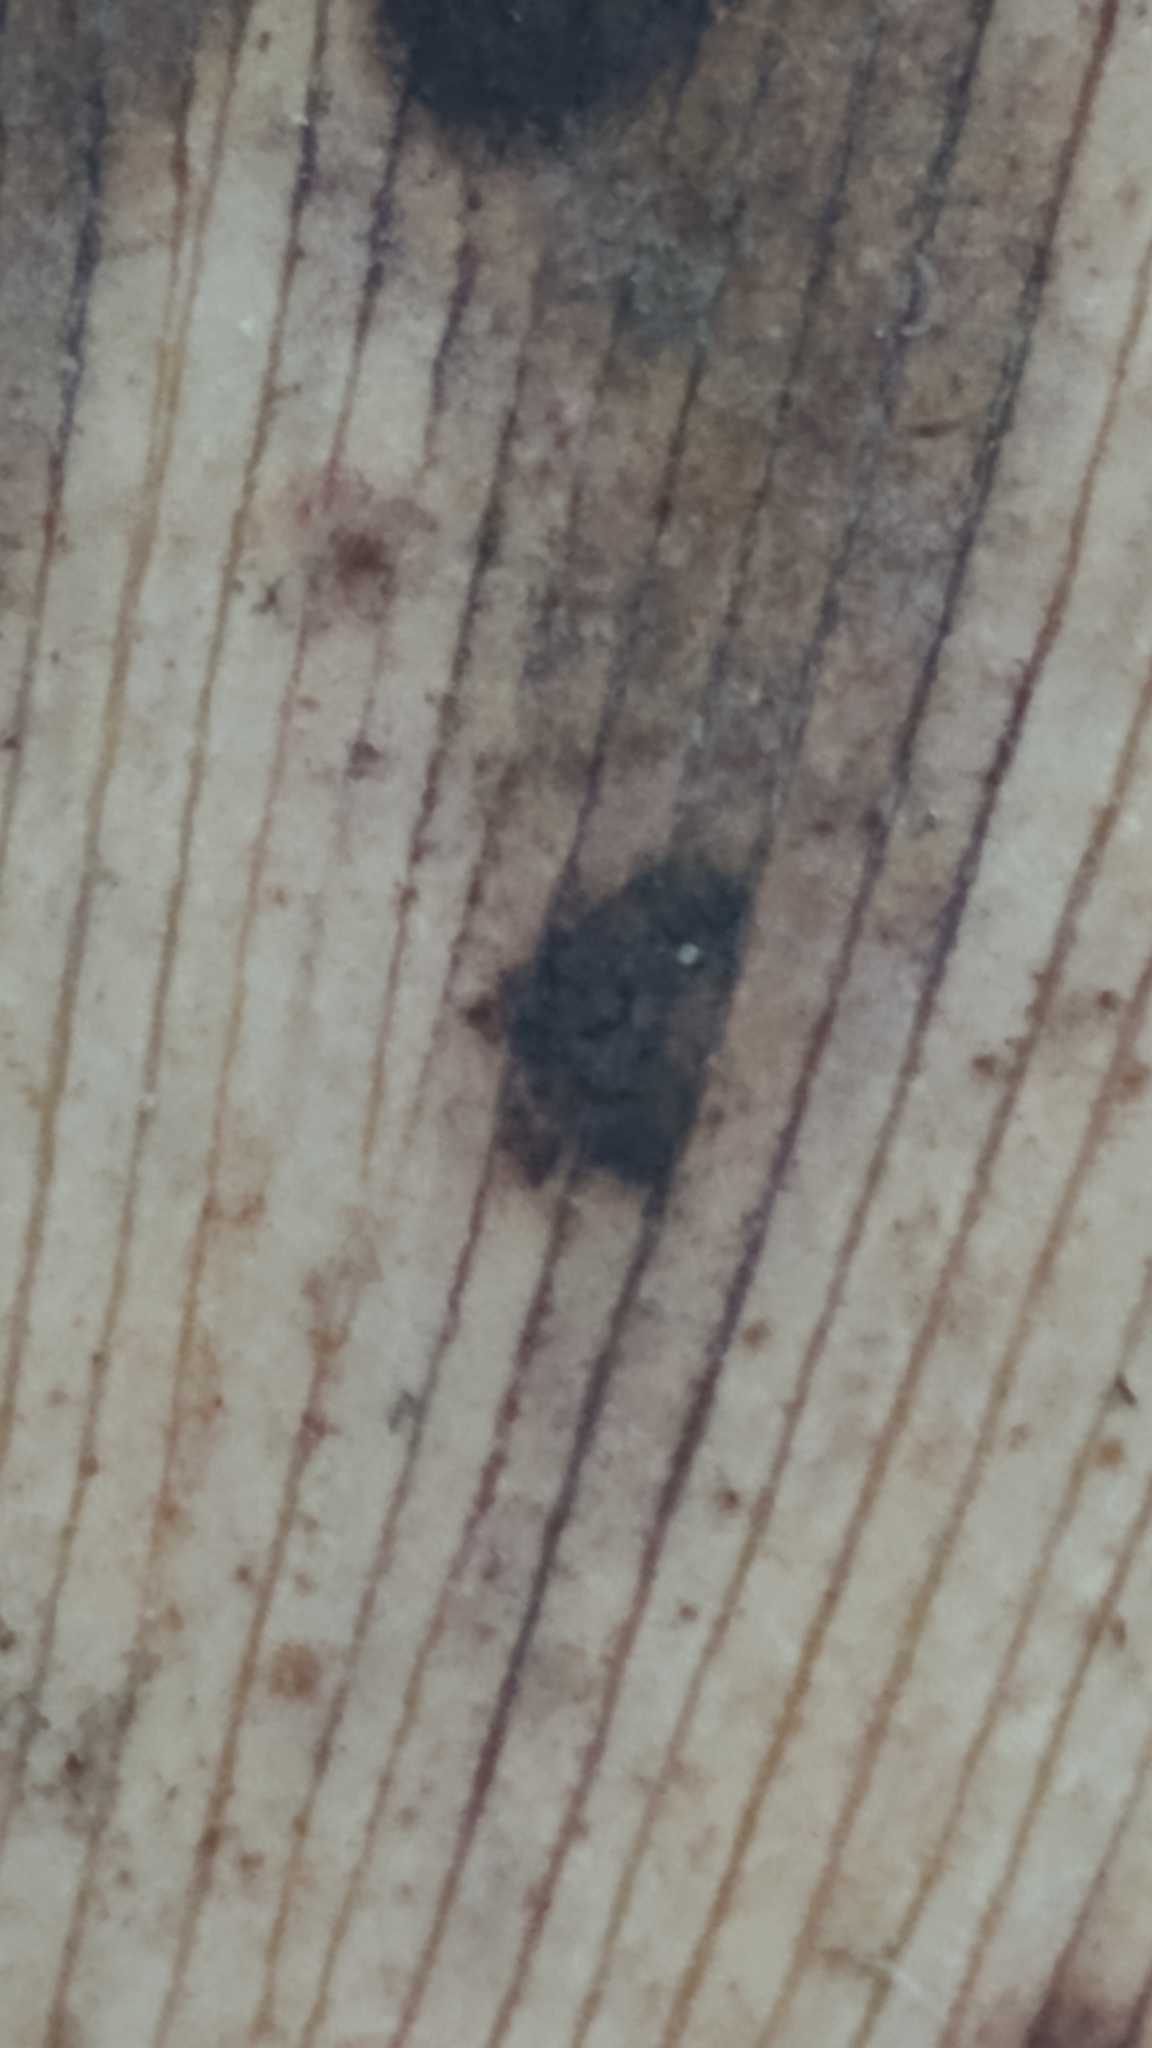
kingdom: Fungi
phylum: Basidiomycota
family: Bartheletiaceae
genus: Bartheletia
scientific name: Bartheletia paradoxa
